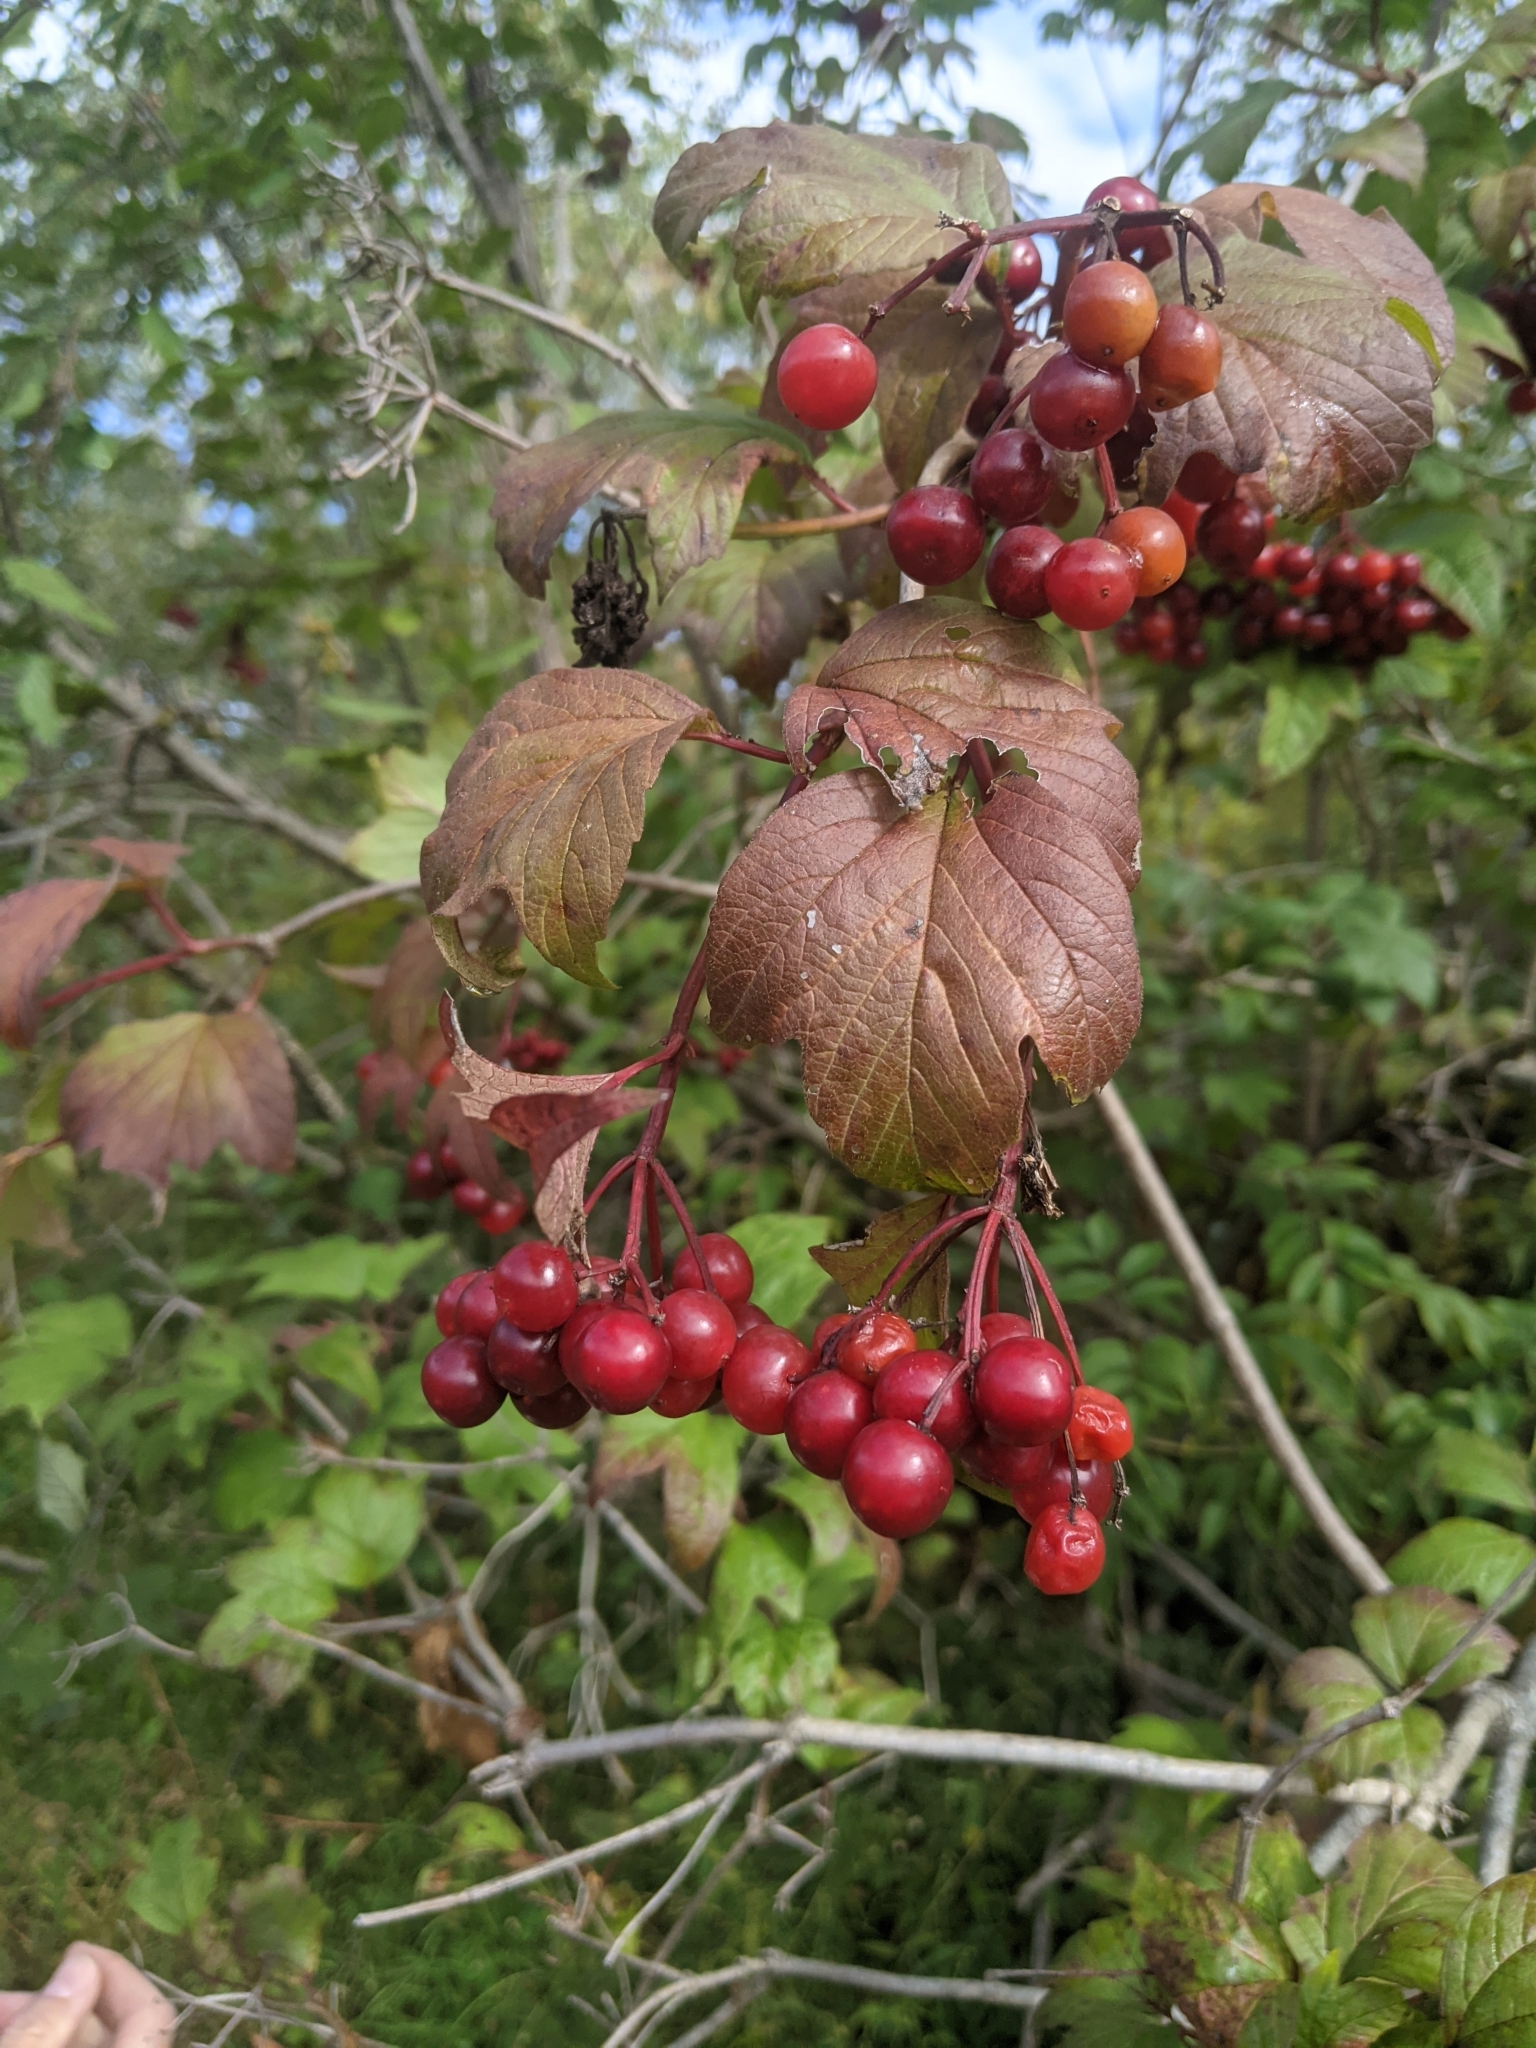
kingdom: Plantae
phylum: Tracheophyta
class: Magnoliopsida
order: Dipsacales
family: Viburnaceae
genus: Viburnum
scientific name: Viburnum opulus
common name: Guelder-rose
